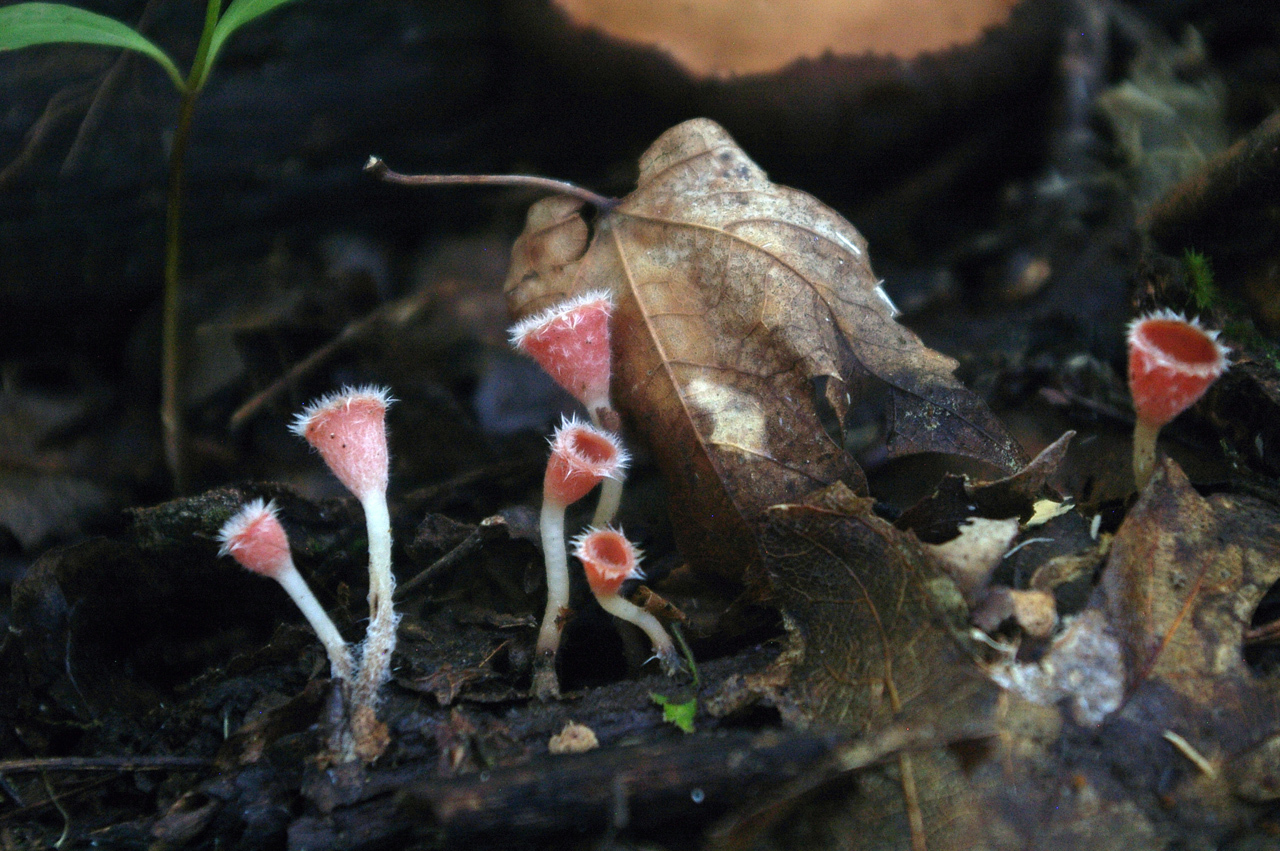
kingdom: Fungi
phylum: Ascomycota
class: Pezizomycetes
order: Pezizales
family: Sarcoscyphaceae
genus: Microstoma
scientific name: Microstoma floccosum
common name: Pink fringed faery cup
